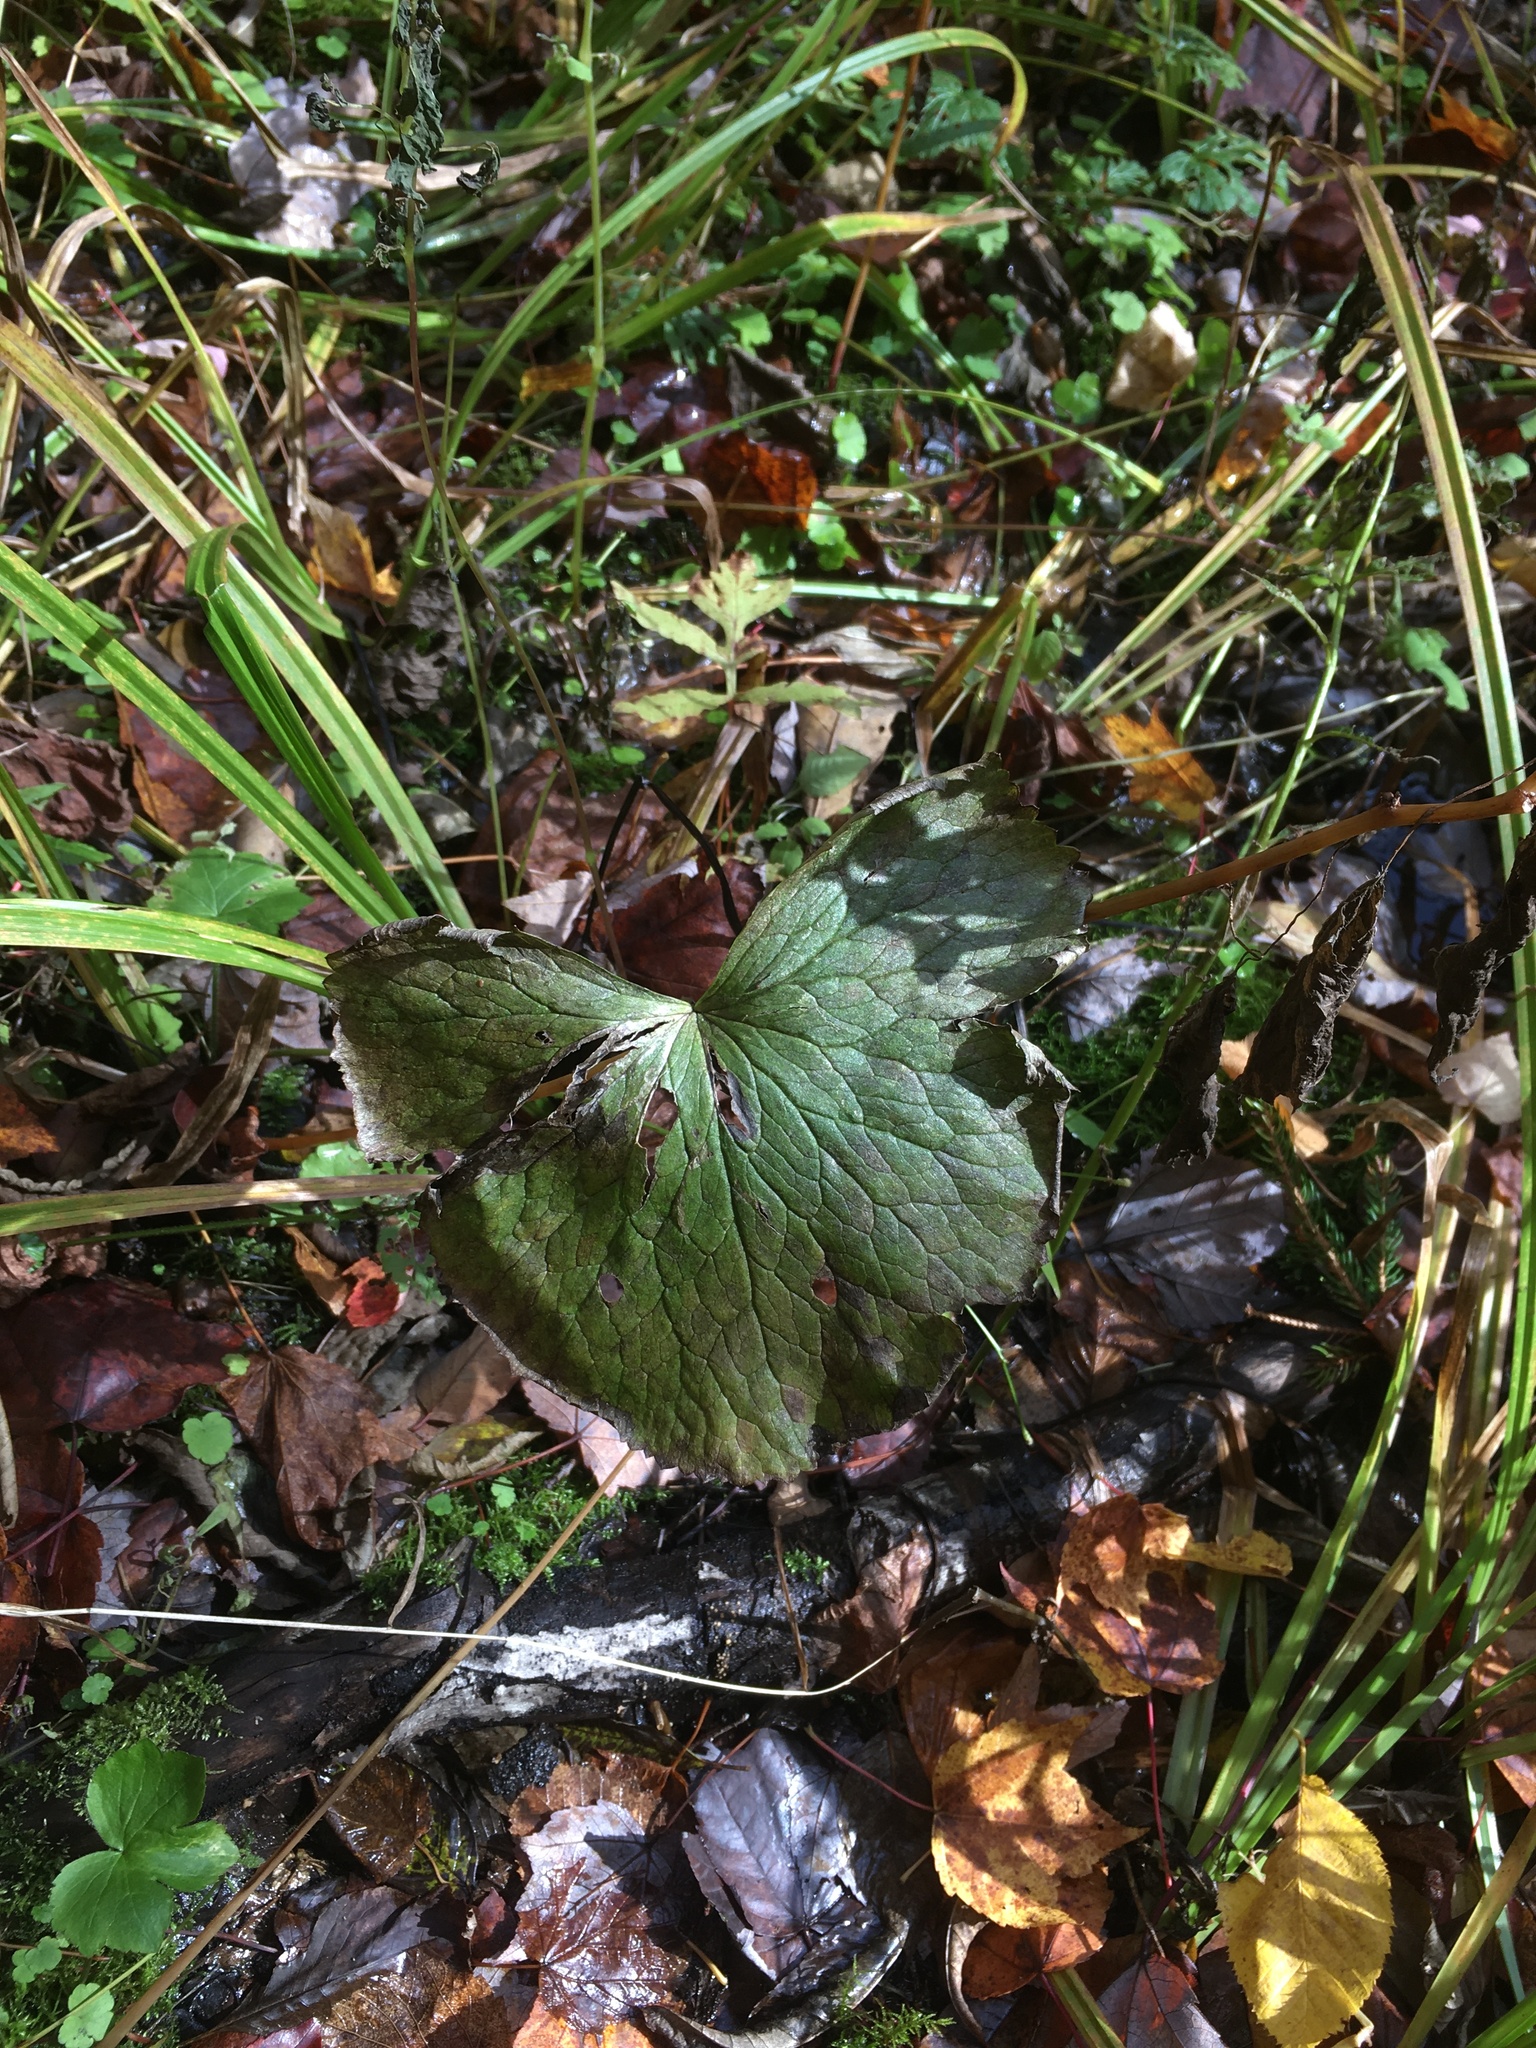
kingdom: Plantae
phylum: Tracheophyta
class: Magnoliopsida
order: Ranunculales
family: Ranunculaceae
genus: Caltha
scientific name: Caltha palustris
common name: Marsh marigold
